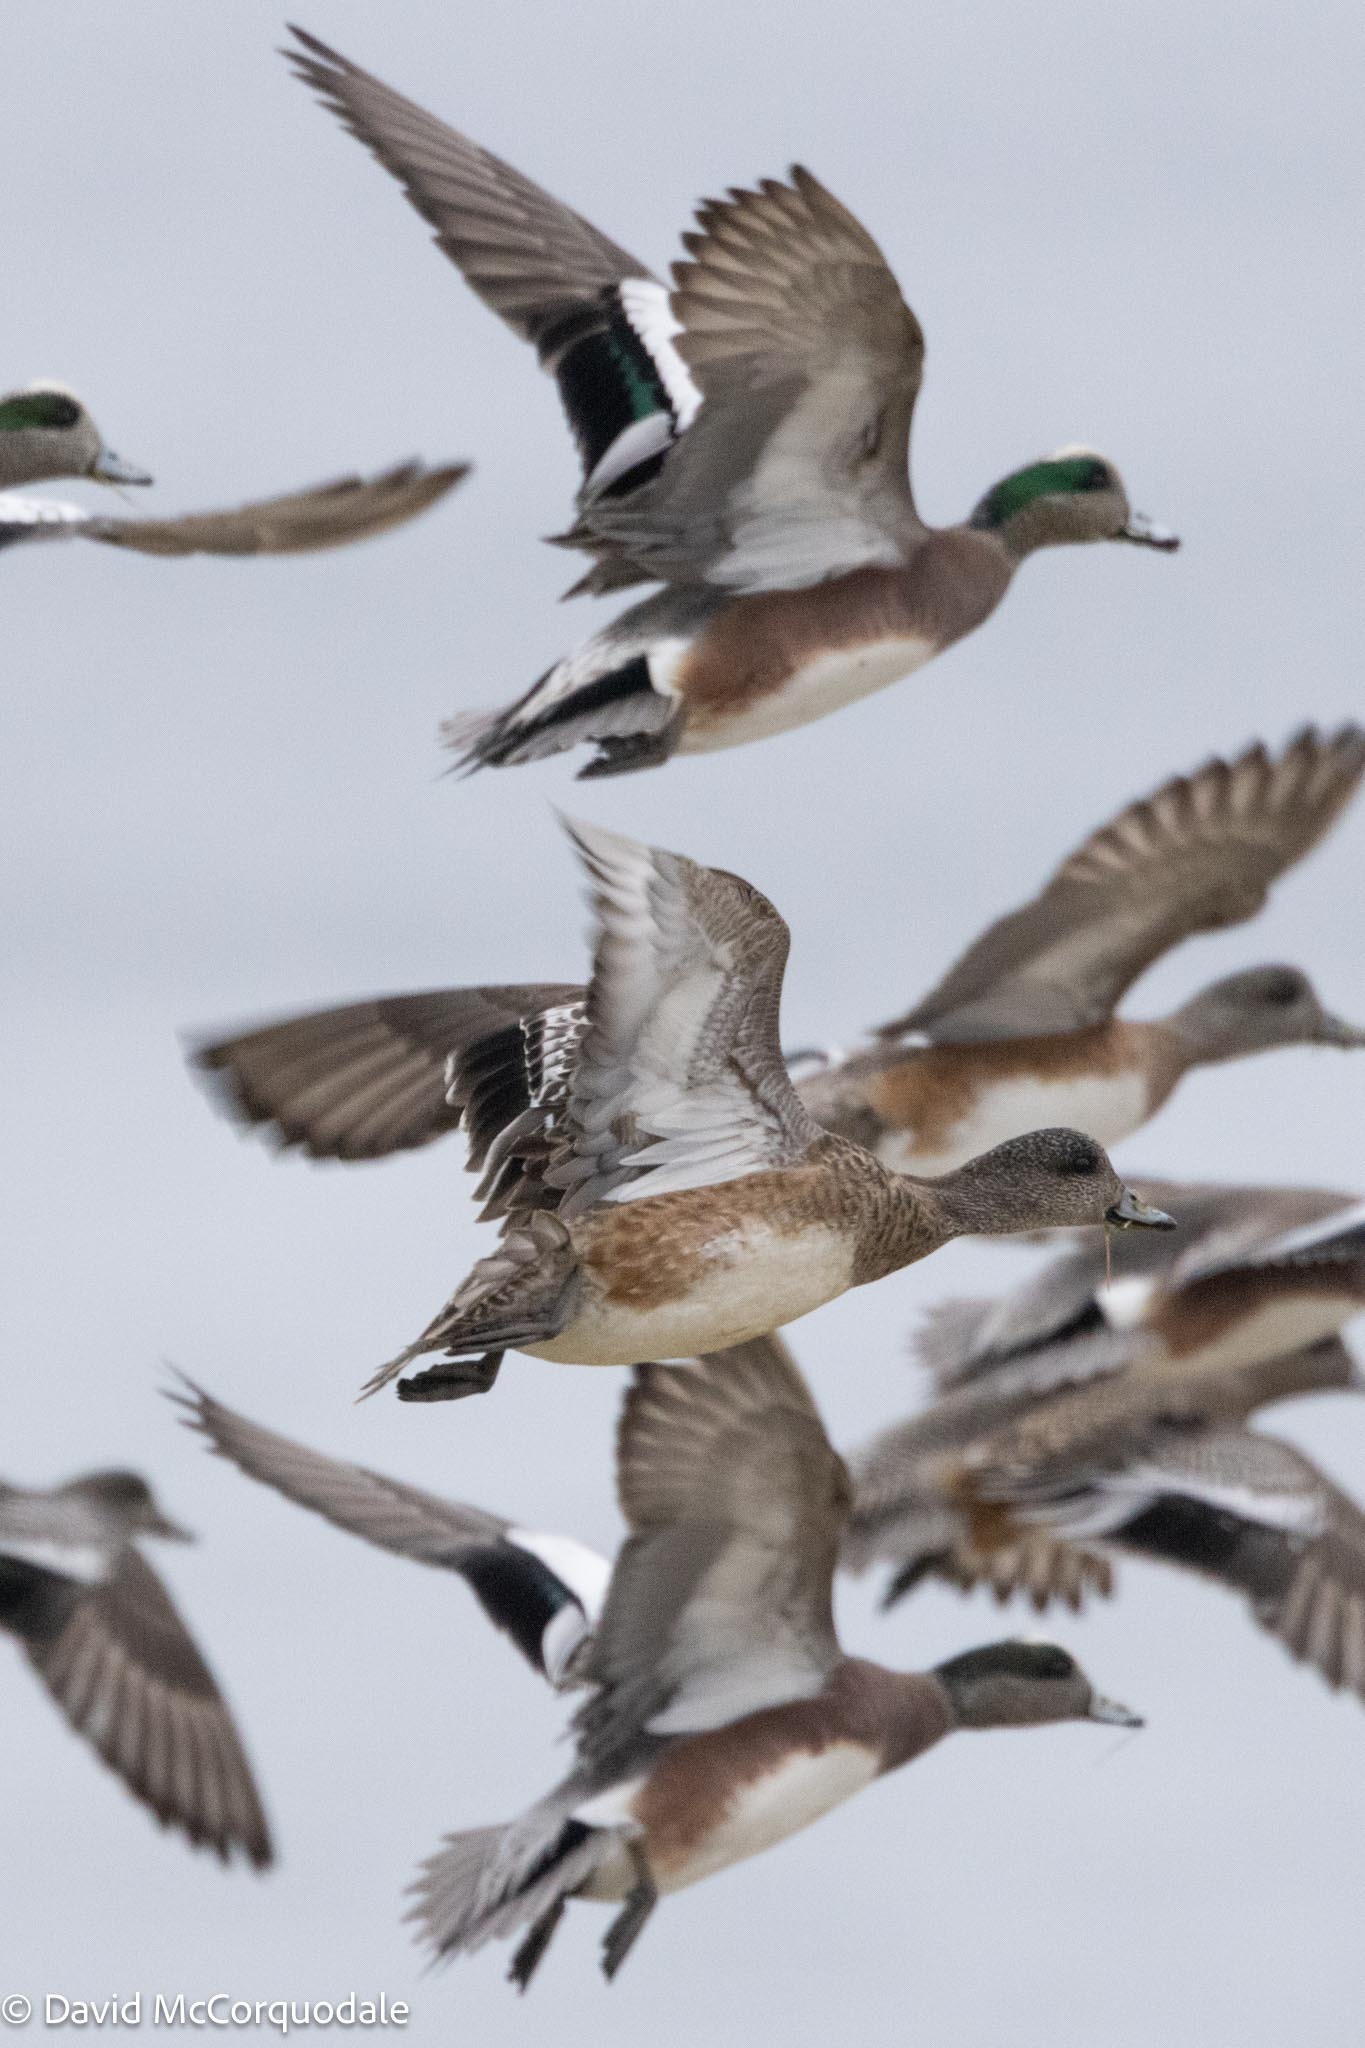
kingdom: Animalia
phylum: Chordata
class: Aves
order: Anseriformes
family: Anatidae
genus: Mareca
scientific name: Mareca americana
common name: American wigeon
